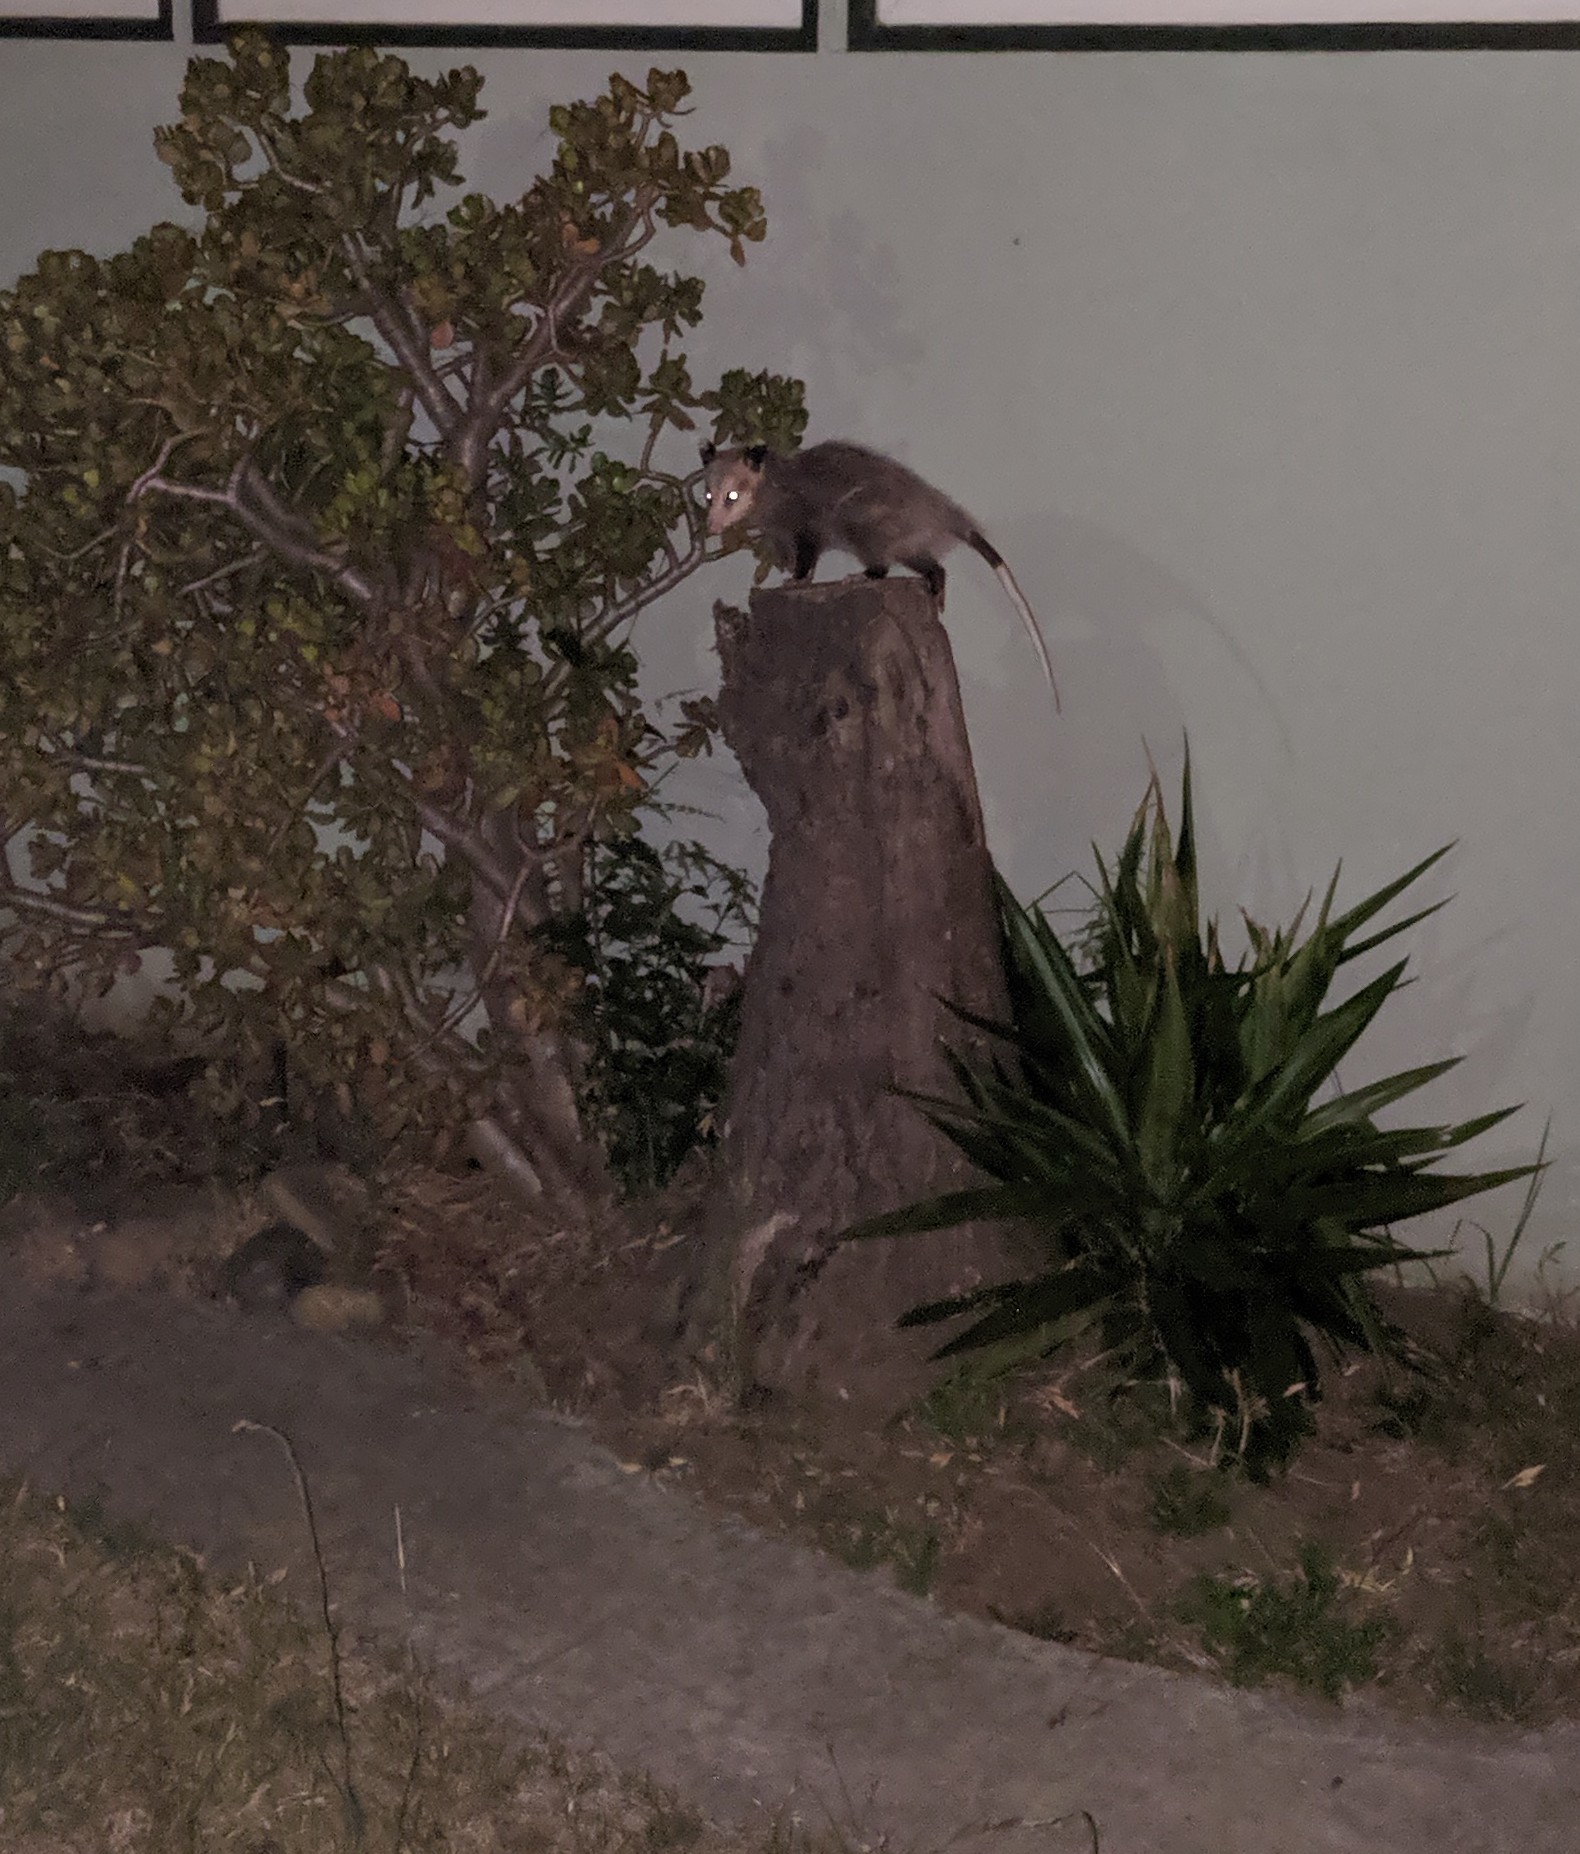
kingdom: Animalia
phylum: Chordata
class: Mammalia
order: Didelphimorphia
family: Didelphidae
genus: Didelphis
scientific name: Didelphis virginiana
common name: Virginia opossum
